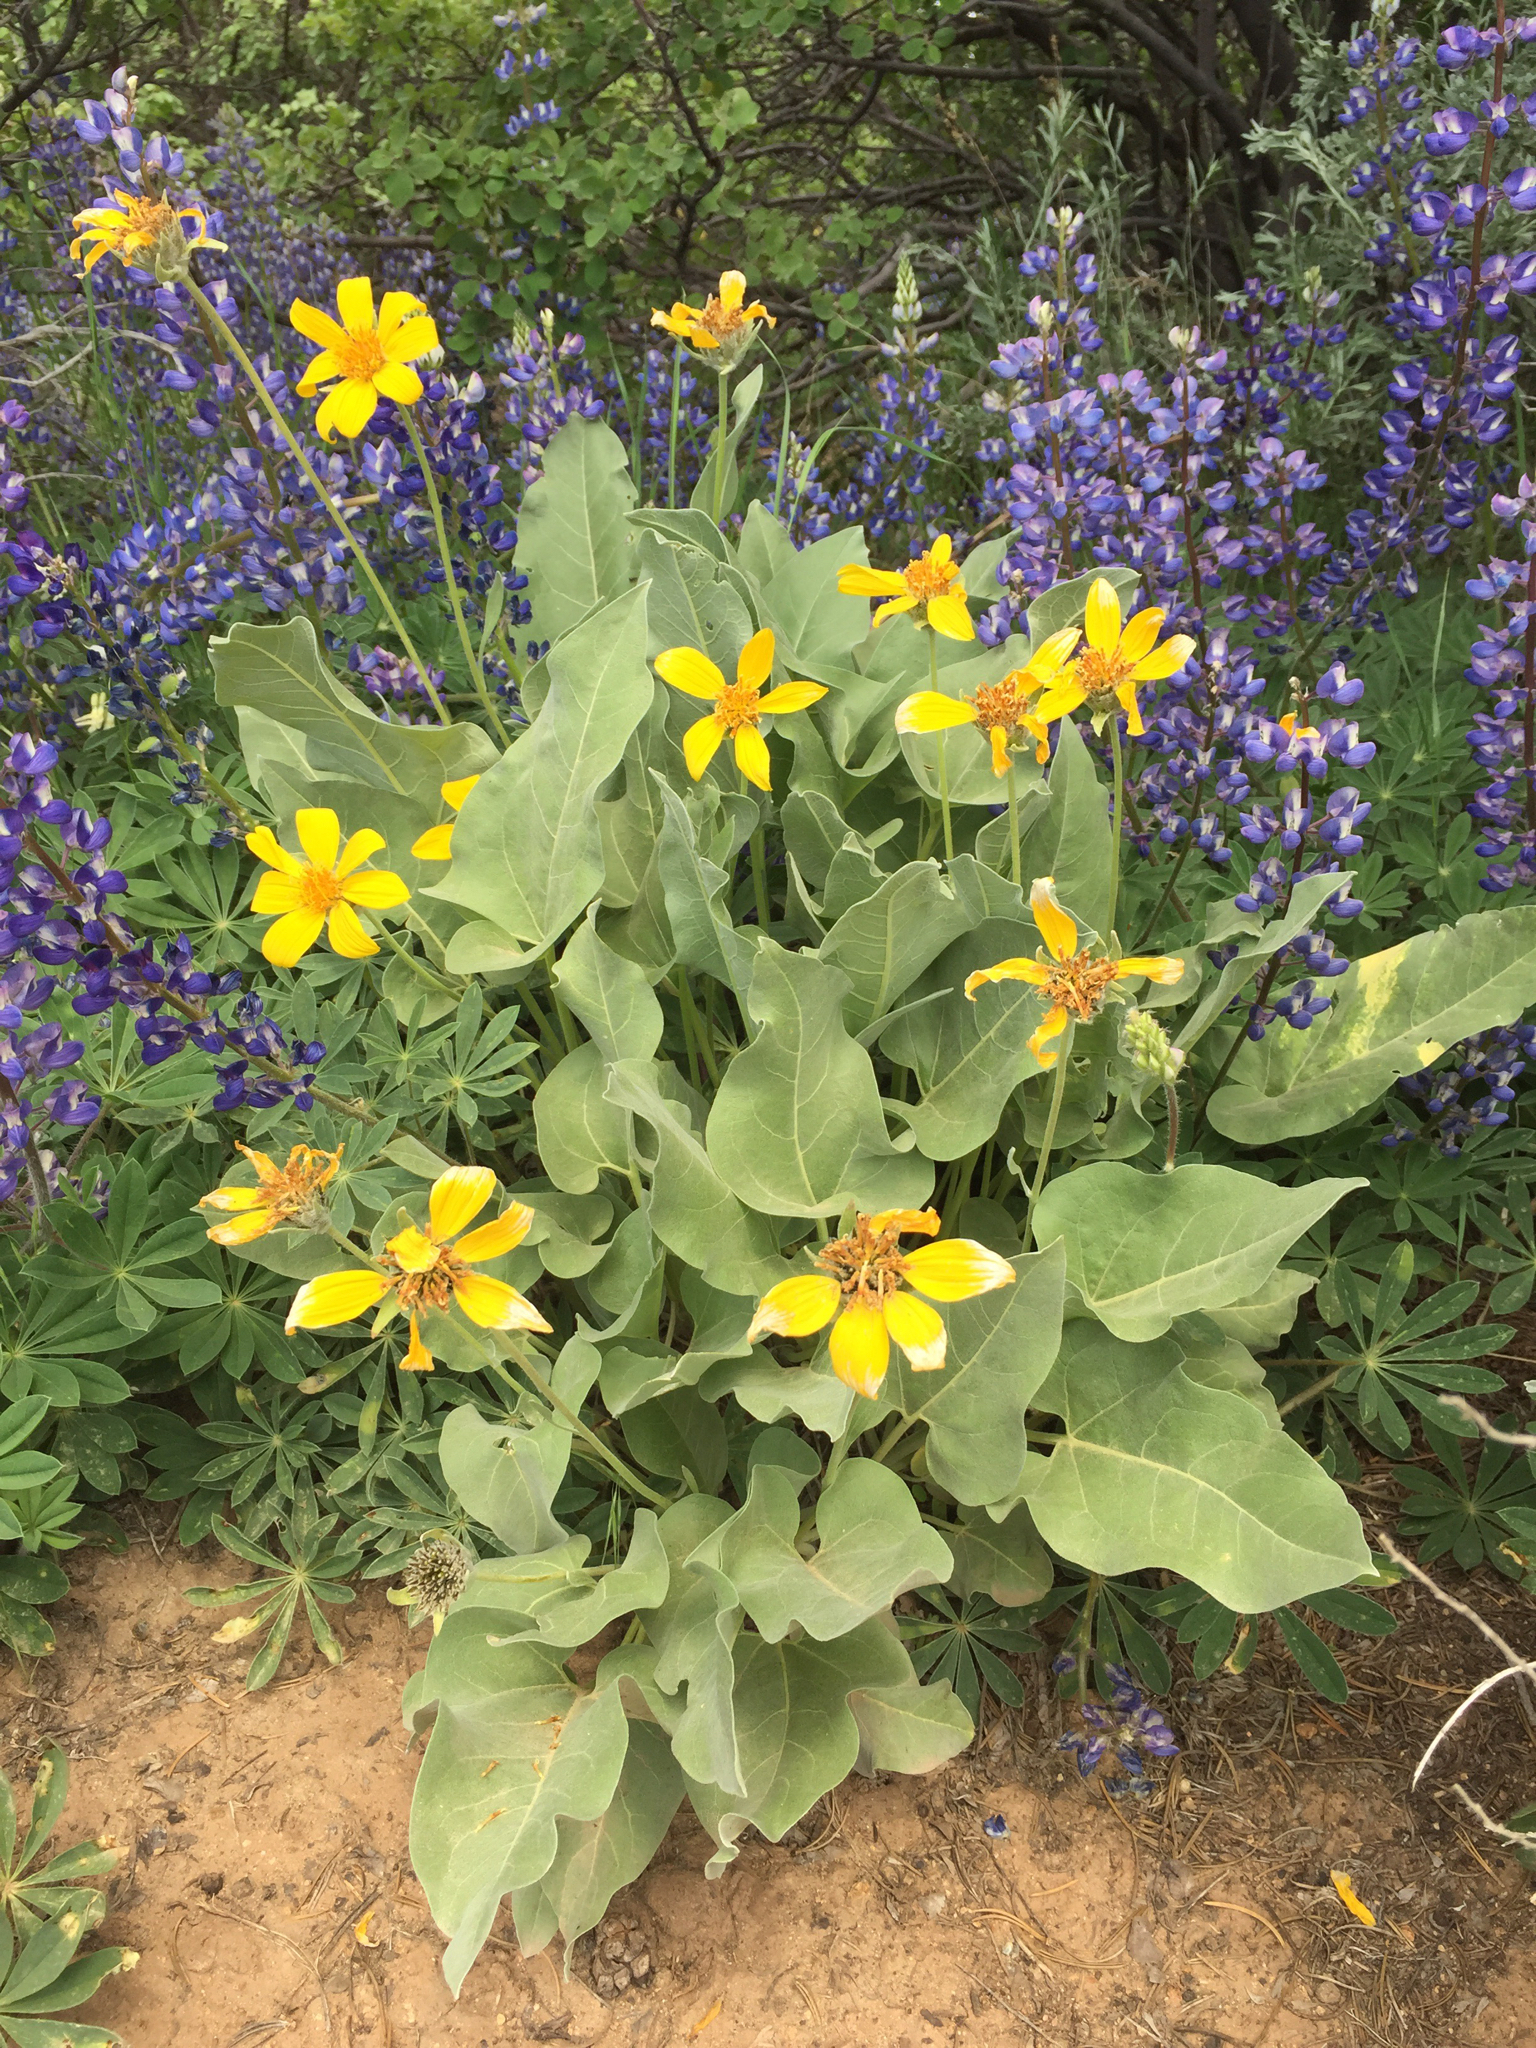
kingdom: Plantae
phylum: Tracheophyta
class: Magnoliopsida
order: Asterales
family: Asteraceae
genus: Wyethia
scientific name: Wyethia sagittata
